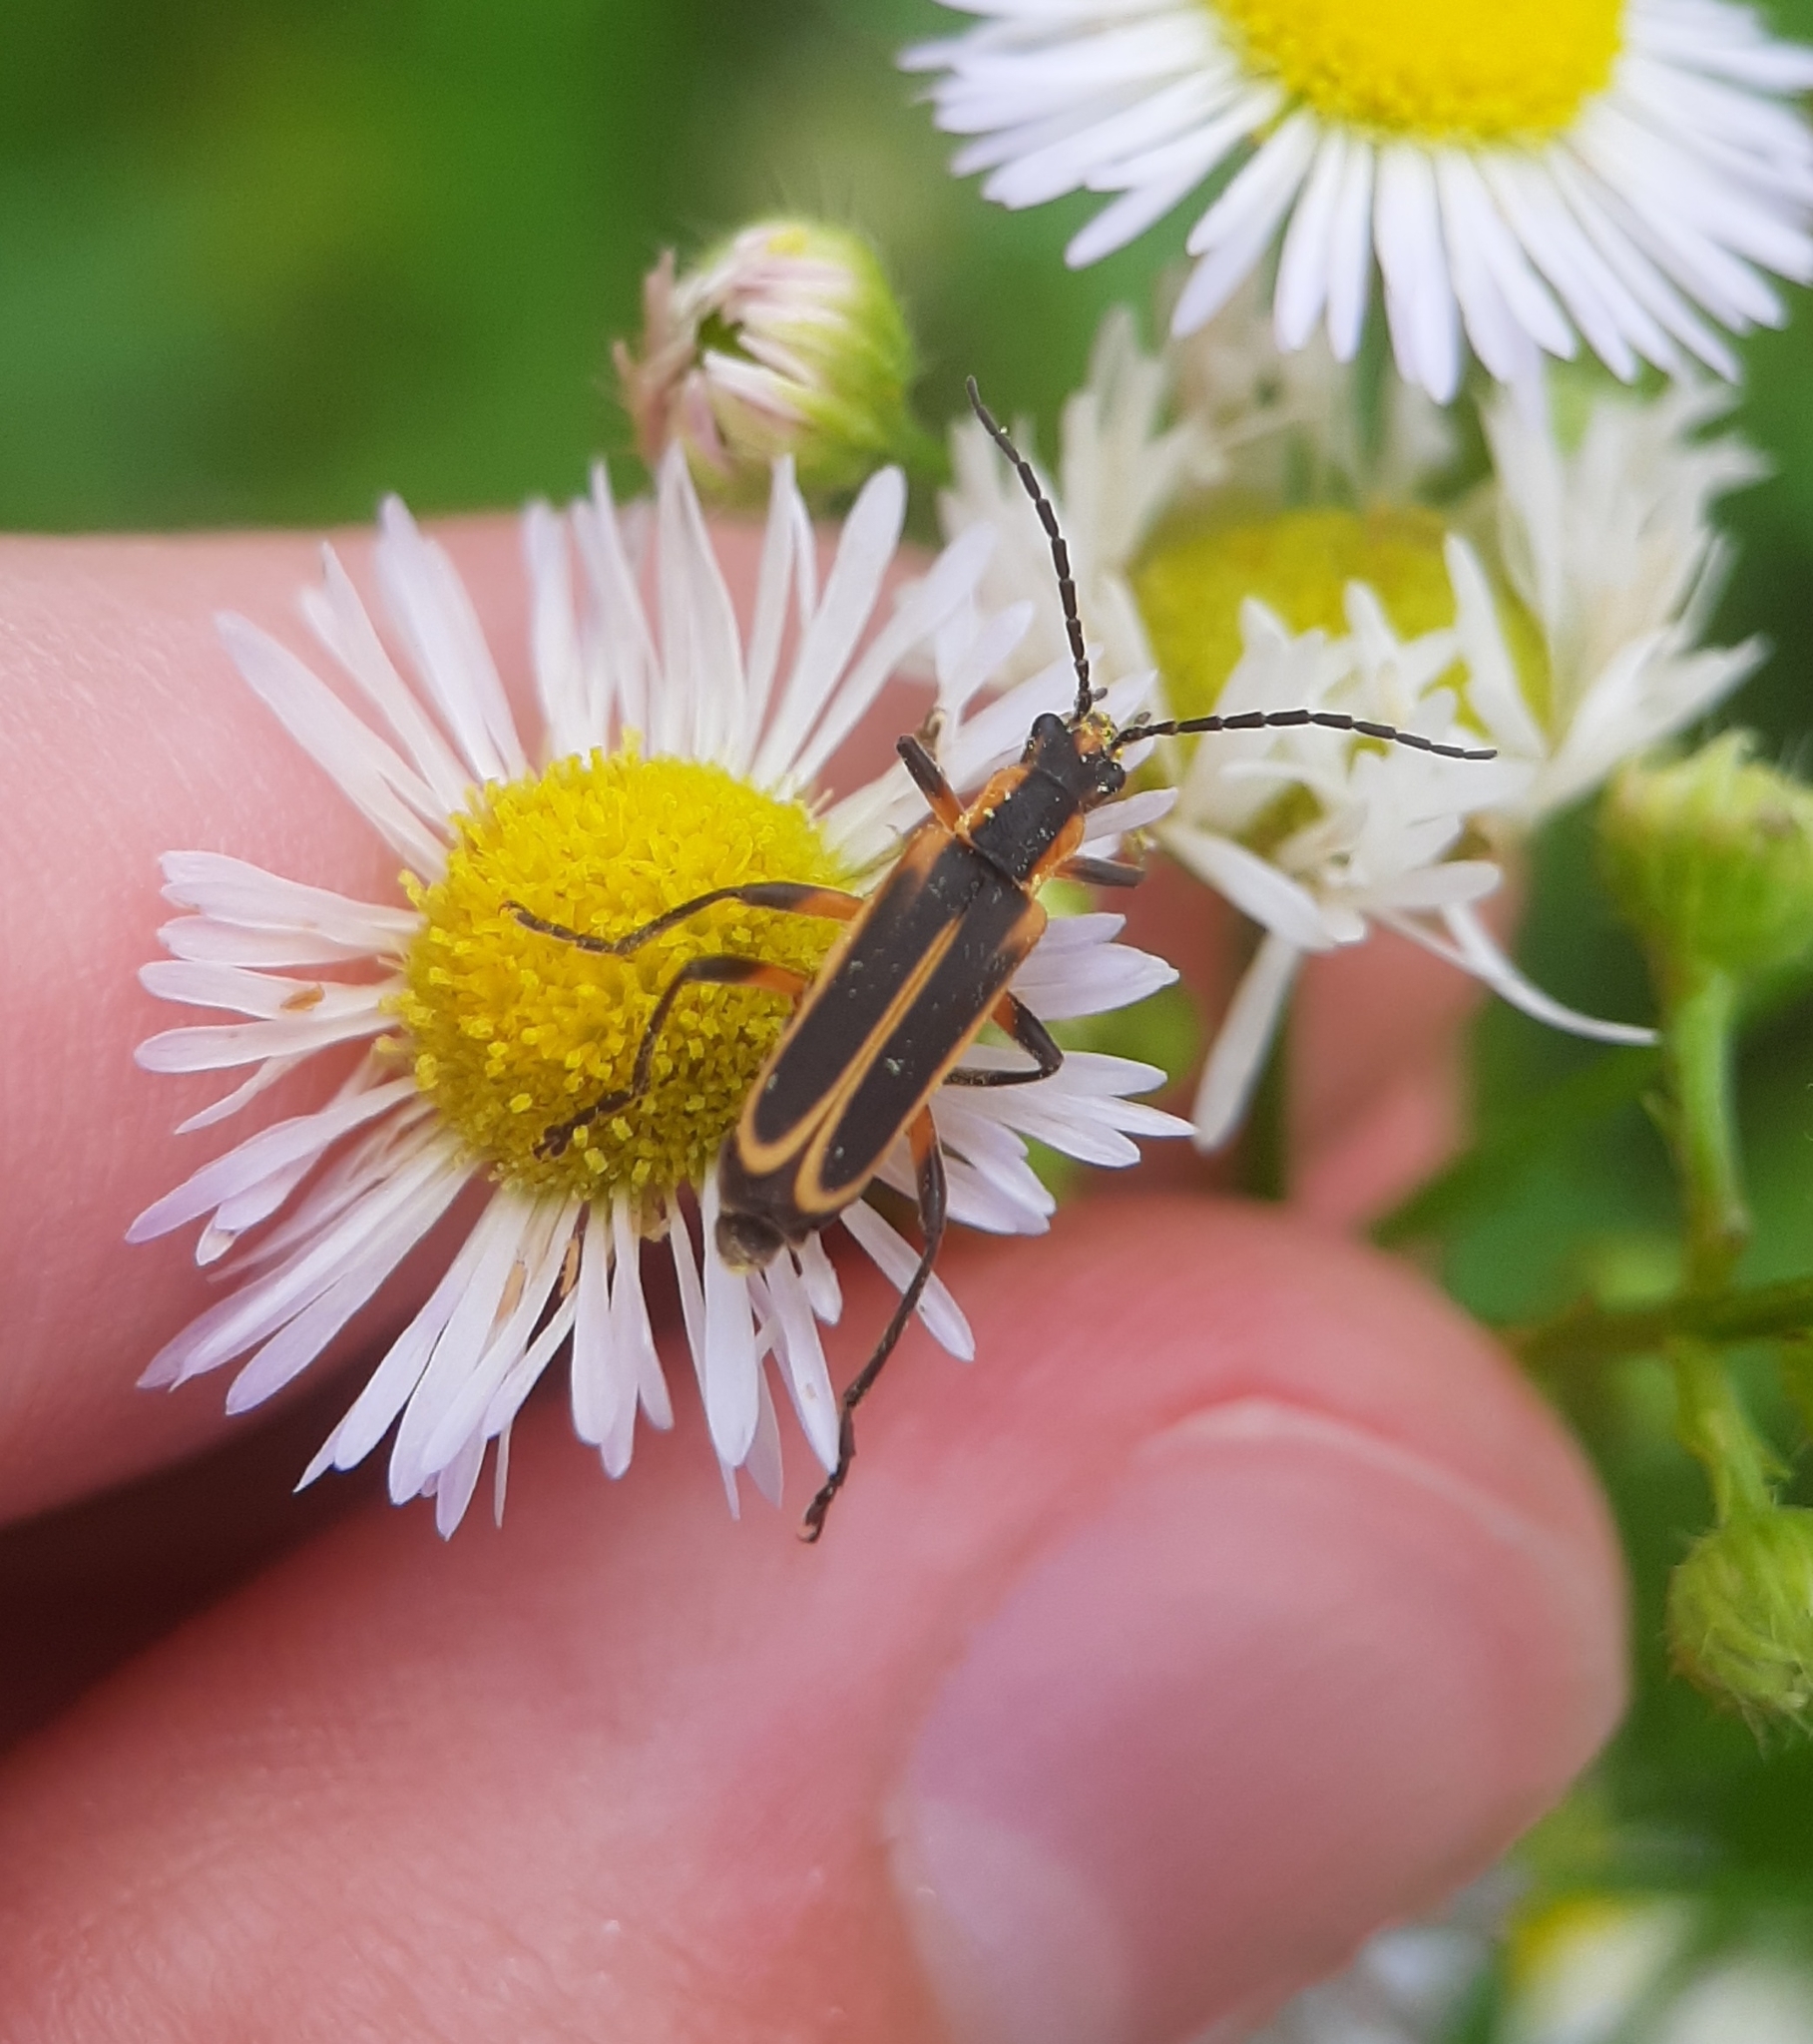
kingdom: Animalia
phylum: Arthropoda
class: Insecta
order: Coleoptera
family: Cantharidae
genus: Chauliognathus
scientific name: Chauliognathus marginatus
